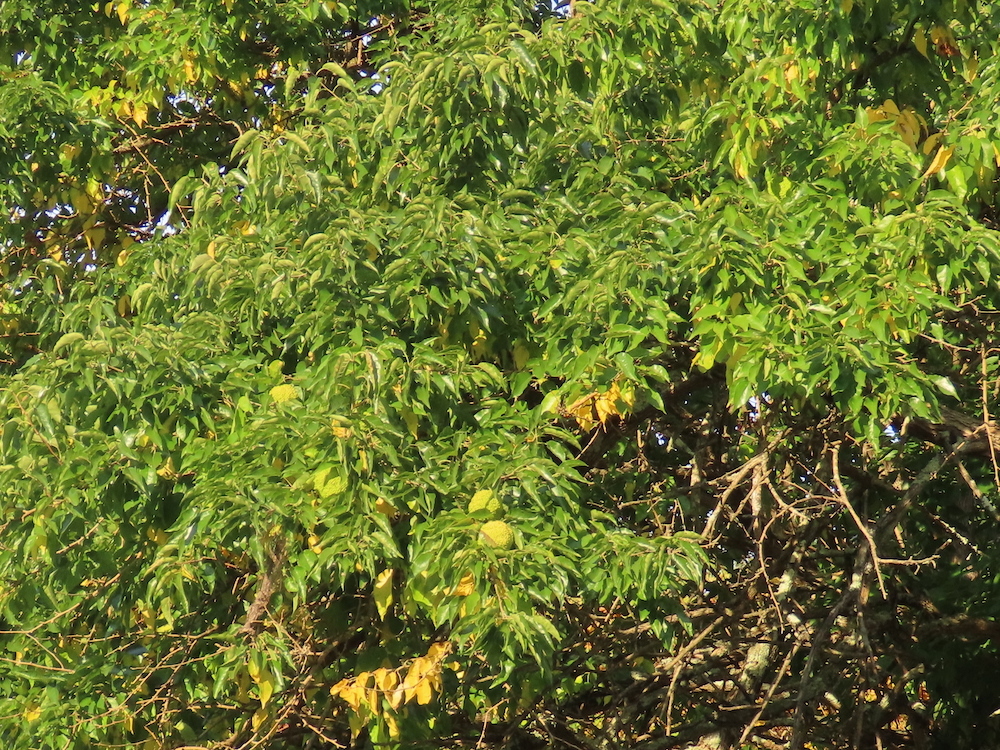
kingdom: Plantae
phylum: Tracheophyta
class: Magnoliopsida
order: Rosales
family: Moraceae
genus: Maclura
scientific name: Maclura pomifera
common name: Osage-orange
